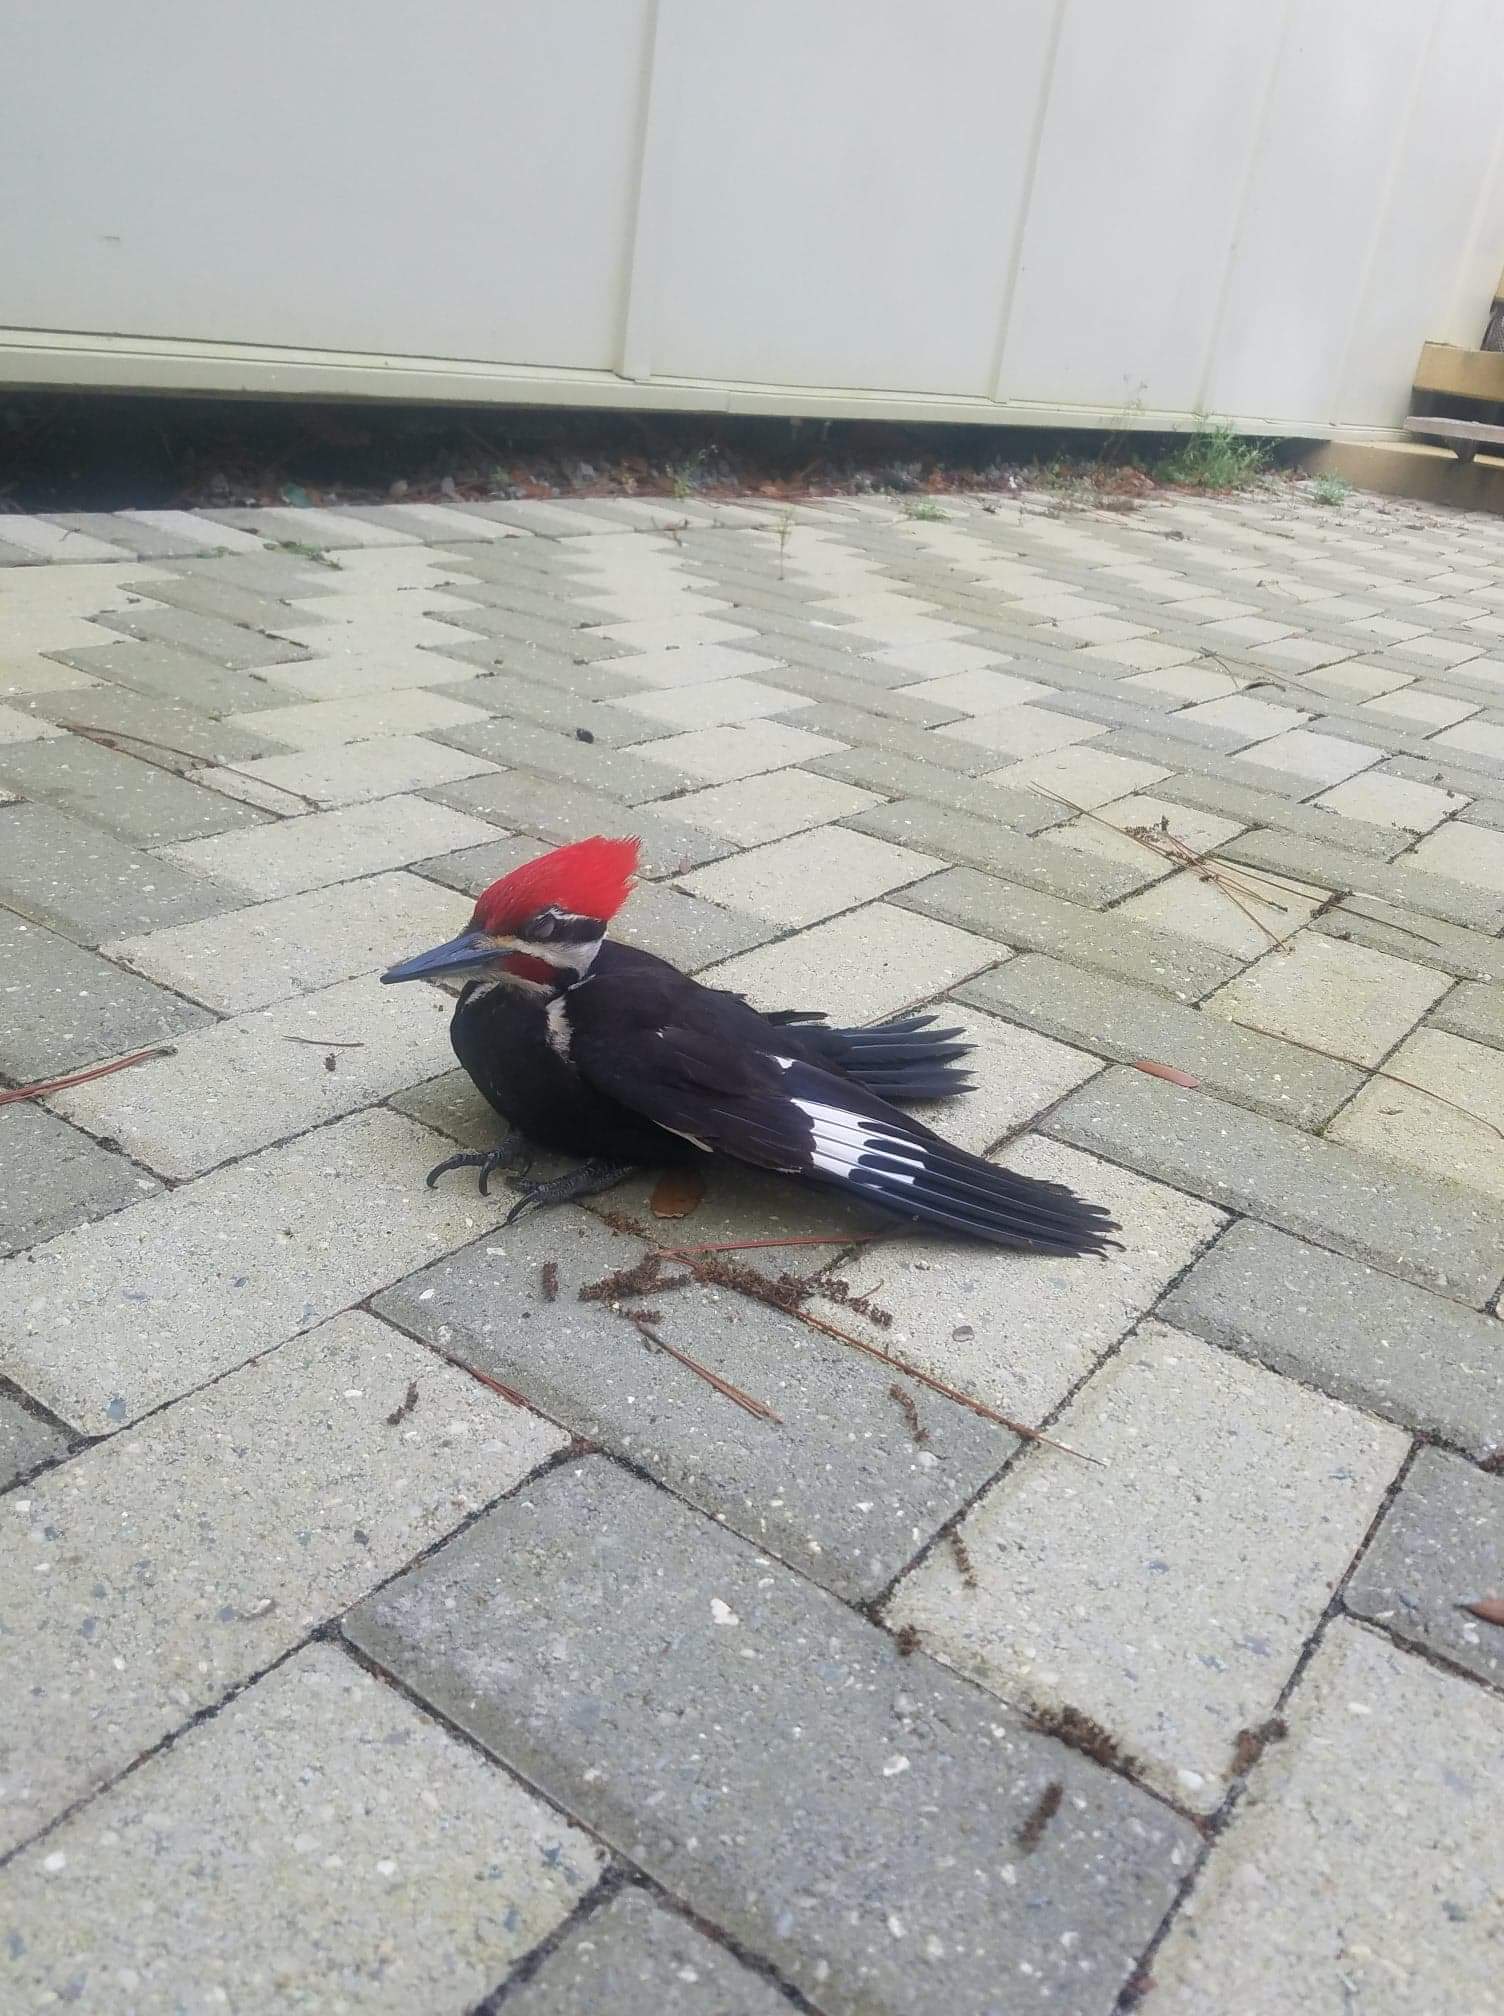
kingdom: Animalia
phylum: Chordata
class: Aves
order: Piciformes
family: Picidae
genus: Dryocopus
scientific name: Dryocopus pileatus
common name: Pileated woodpecker
